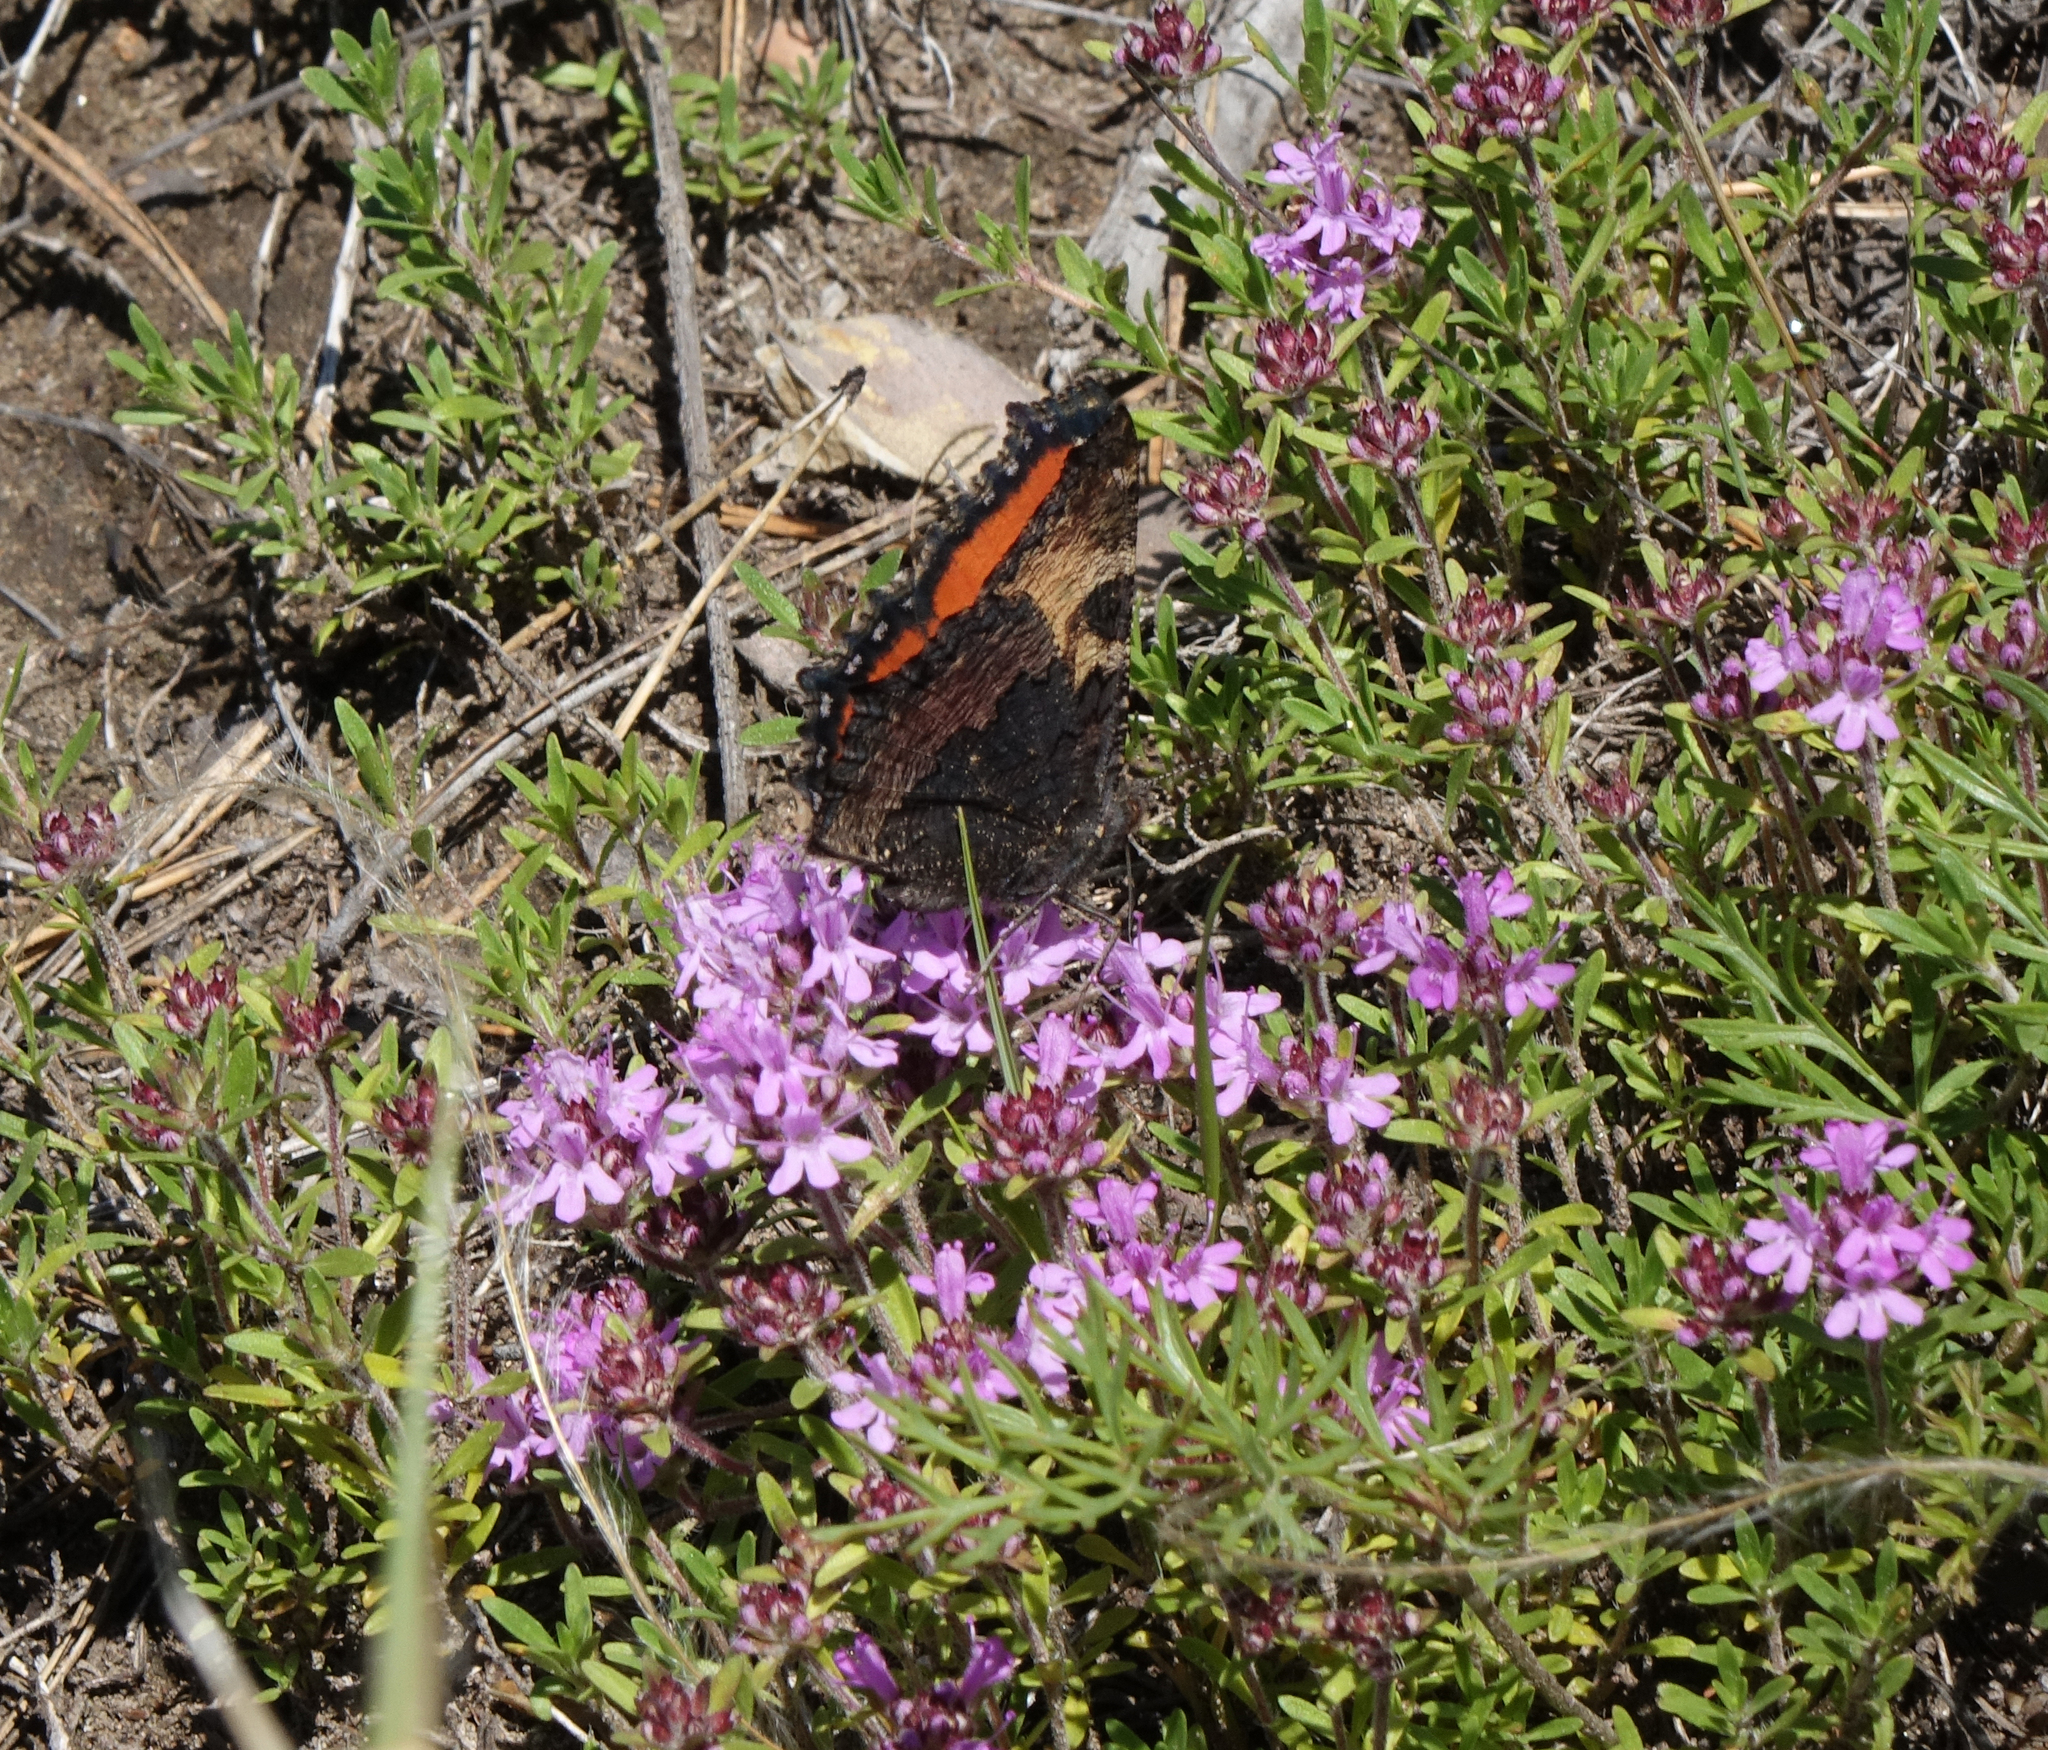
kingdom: Animalia
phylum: Arthropoda
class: Insecta
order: Lepidoptera
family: Nymphalidae
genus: Aglais
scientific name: Aglais urticae
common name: Small tortoiseshell
